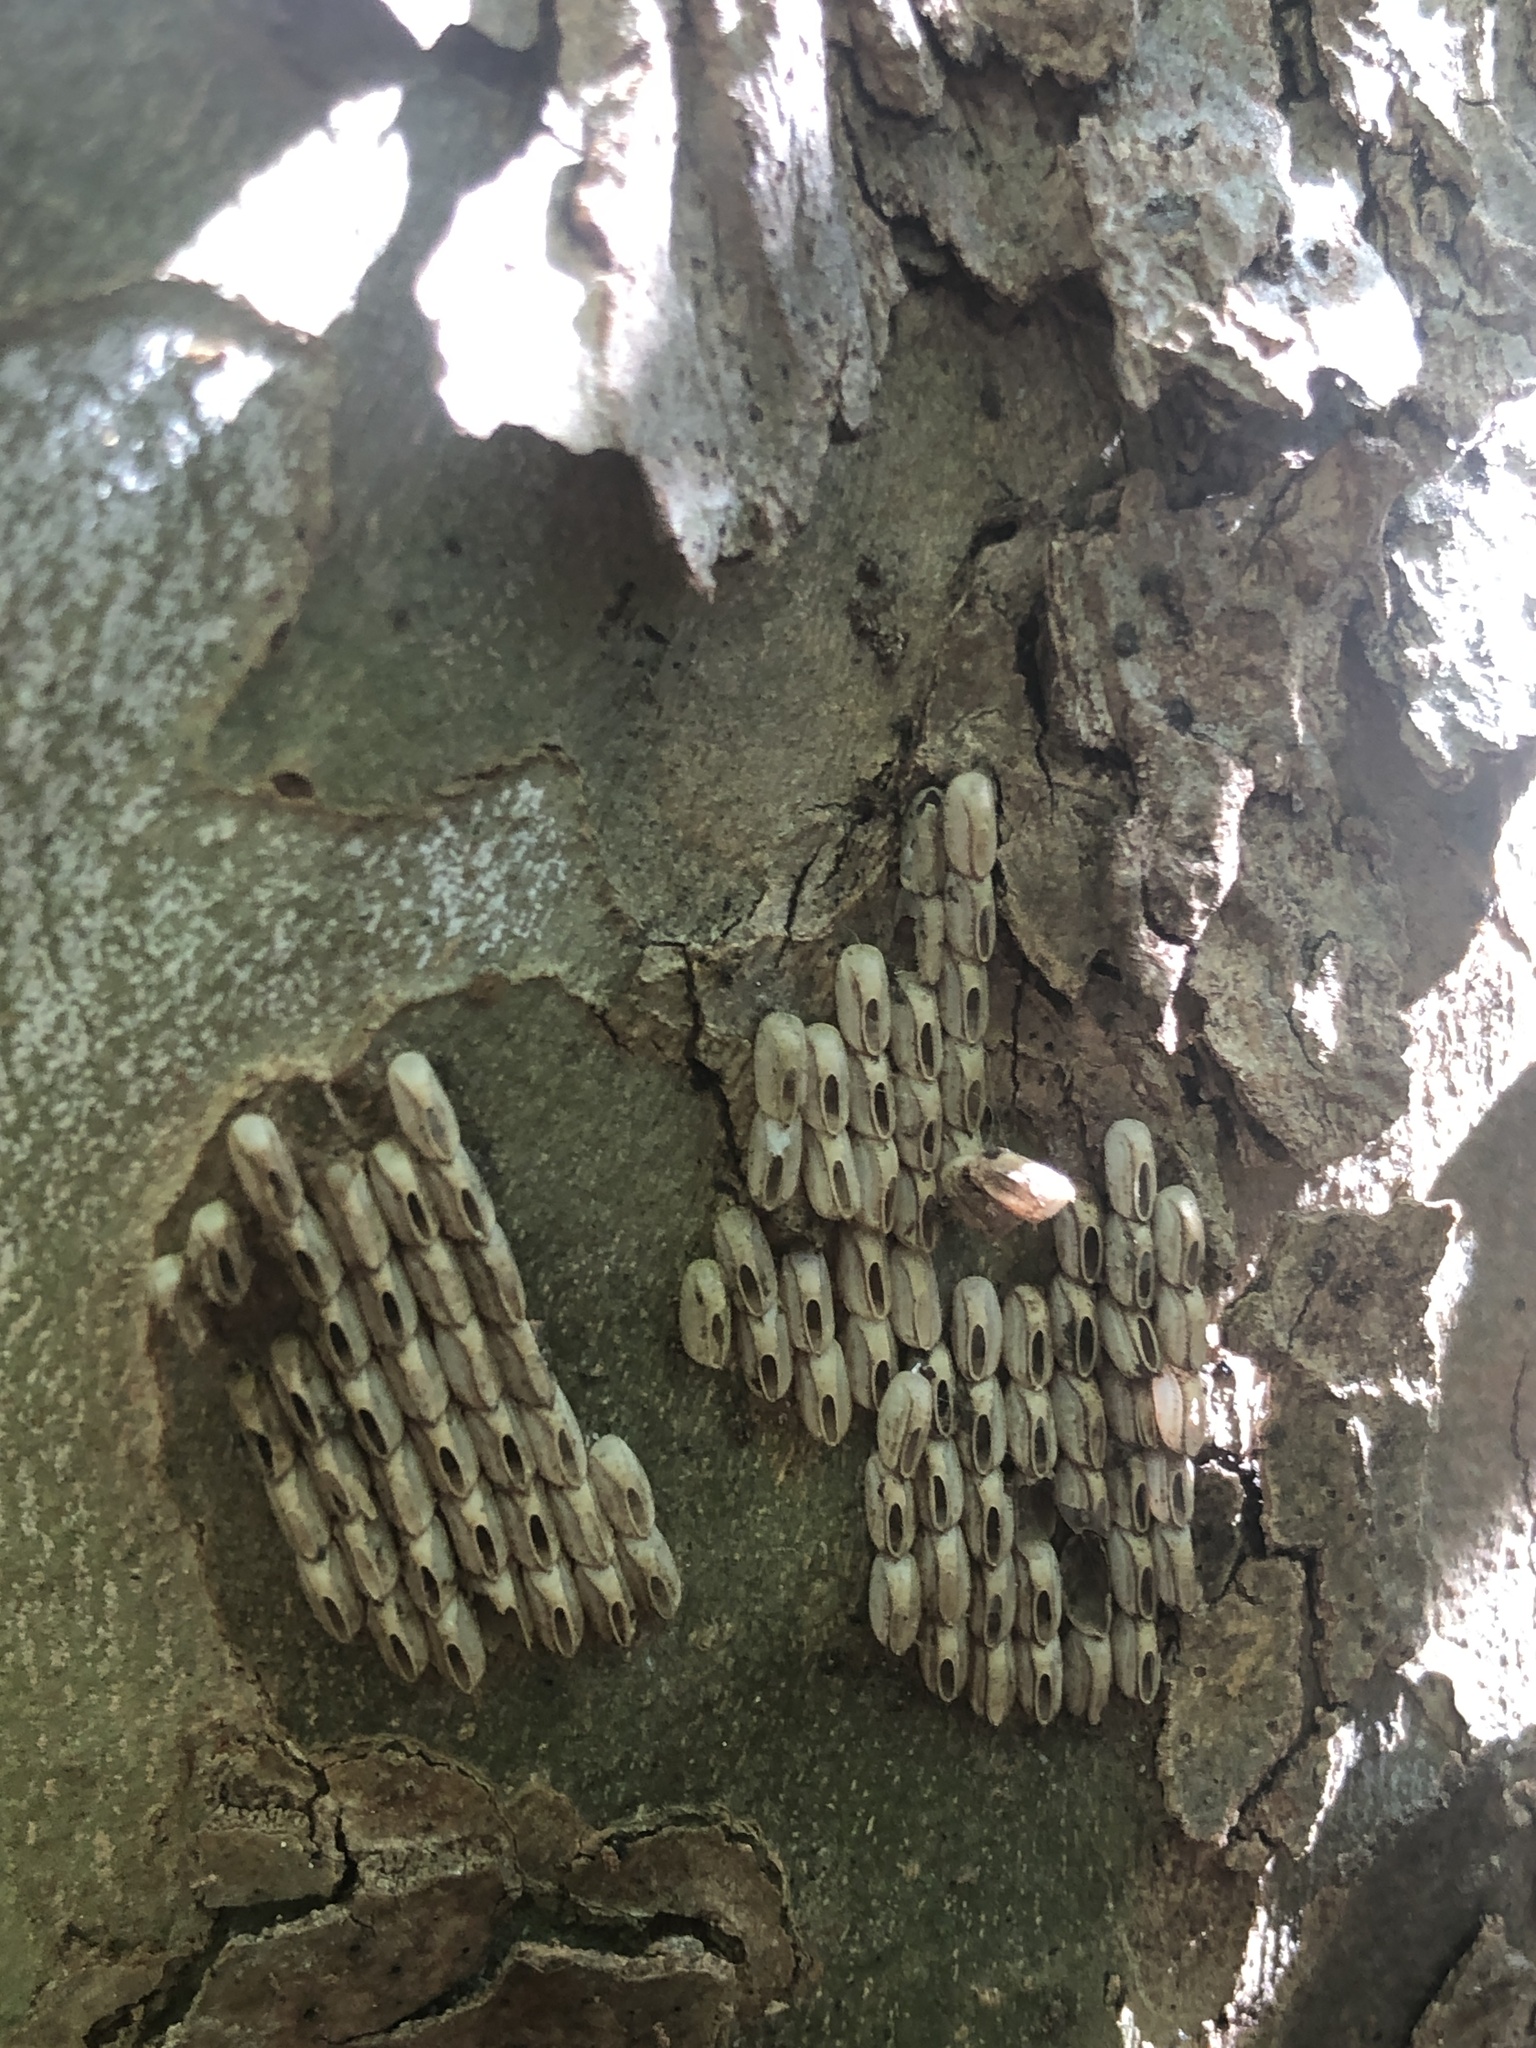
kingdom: Animalia
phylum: Arthropoda
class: Insecta
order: Hemiptera
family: Fulgoridae
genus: Lycorma
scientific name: Lycorma delicatula
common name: Spotted lanternfly
